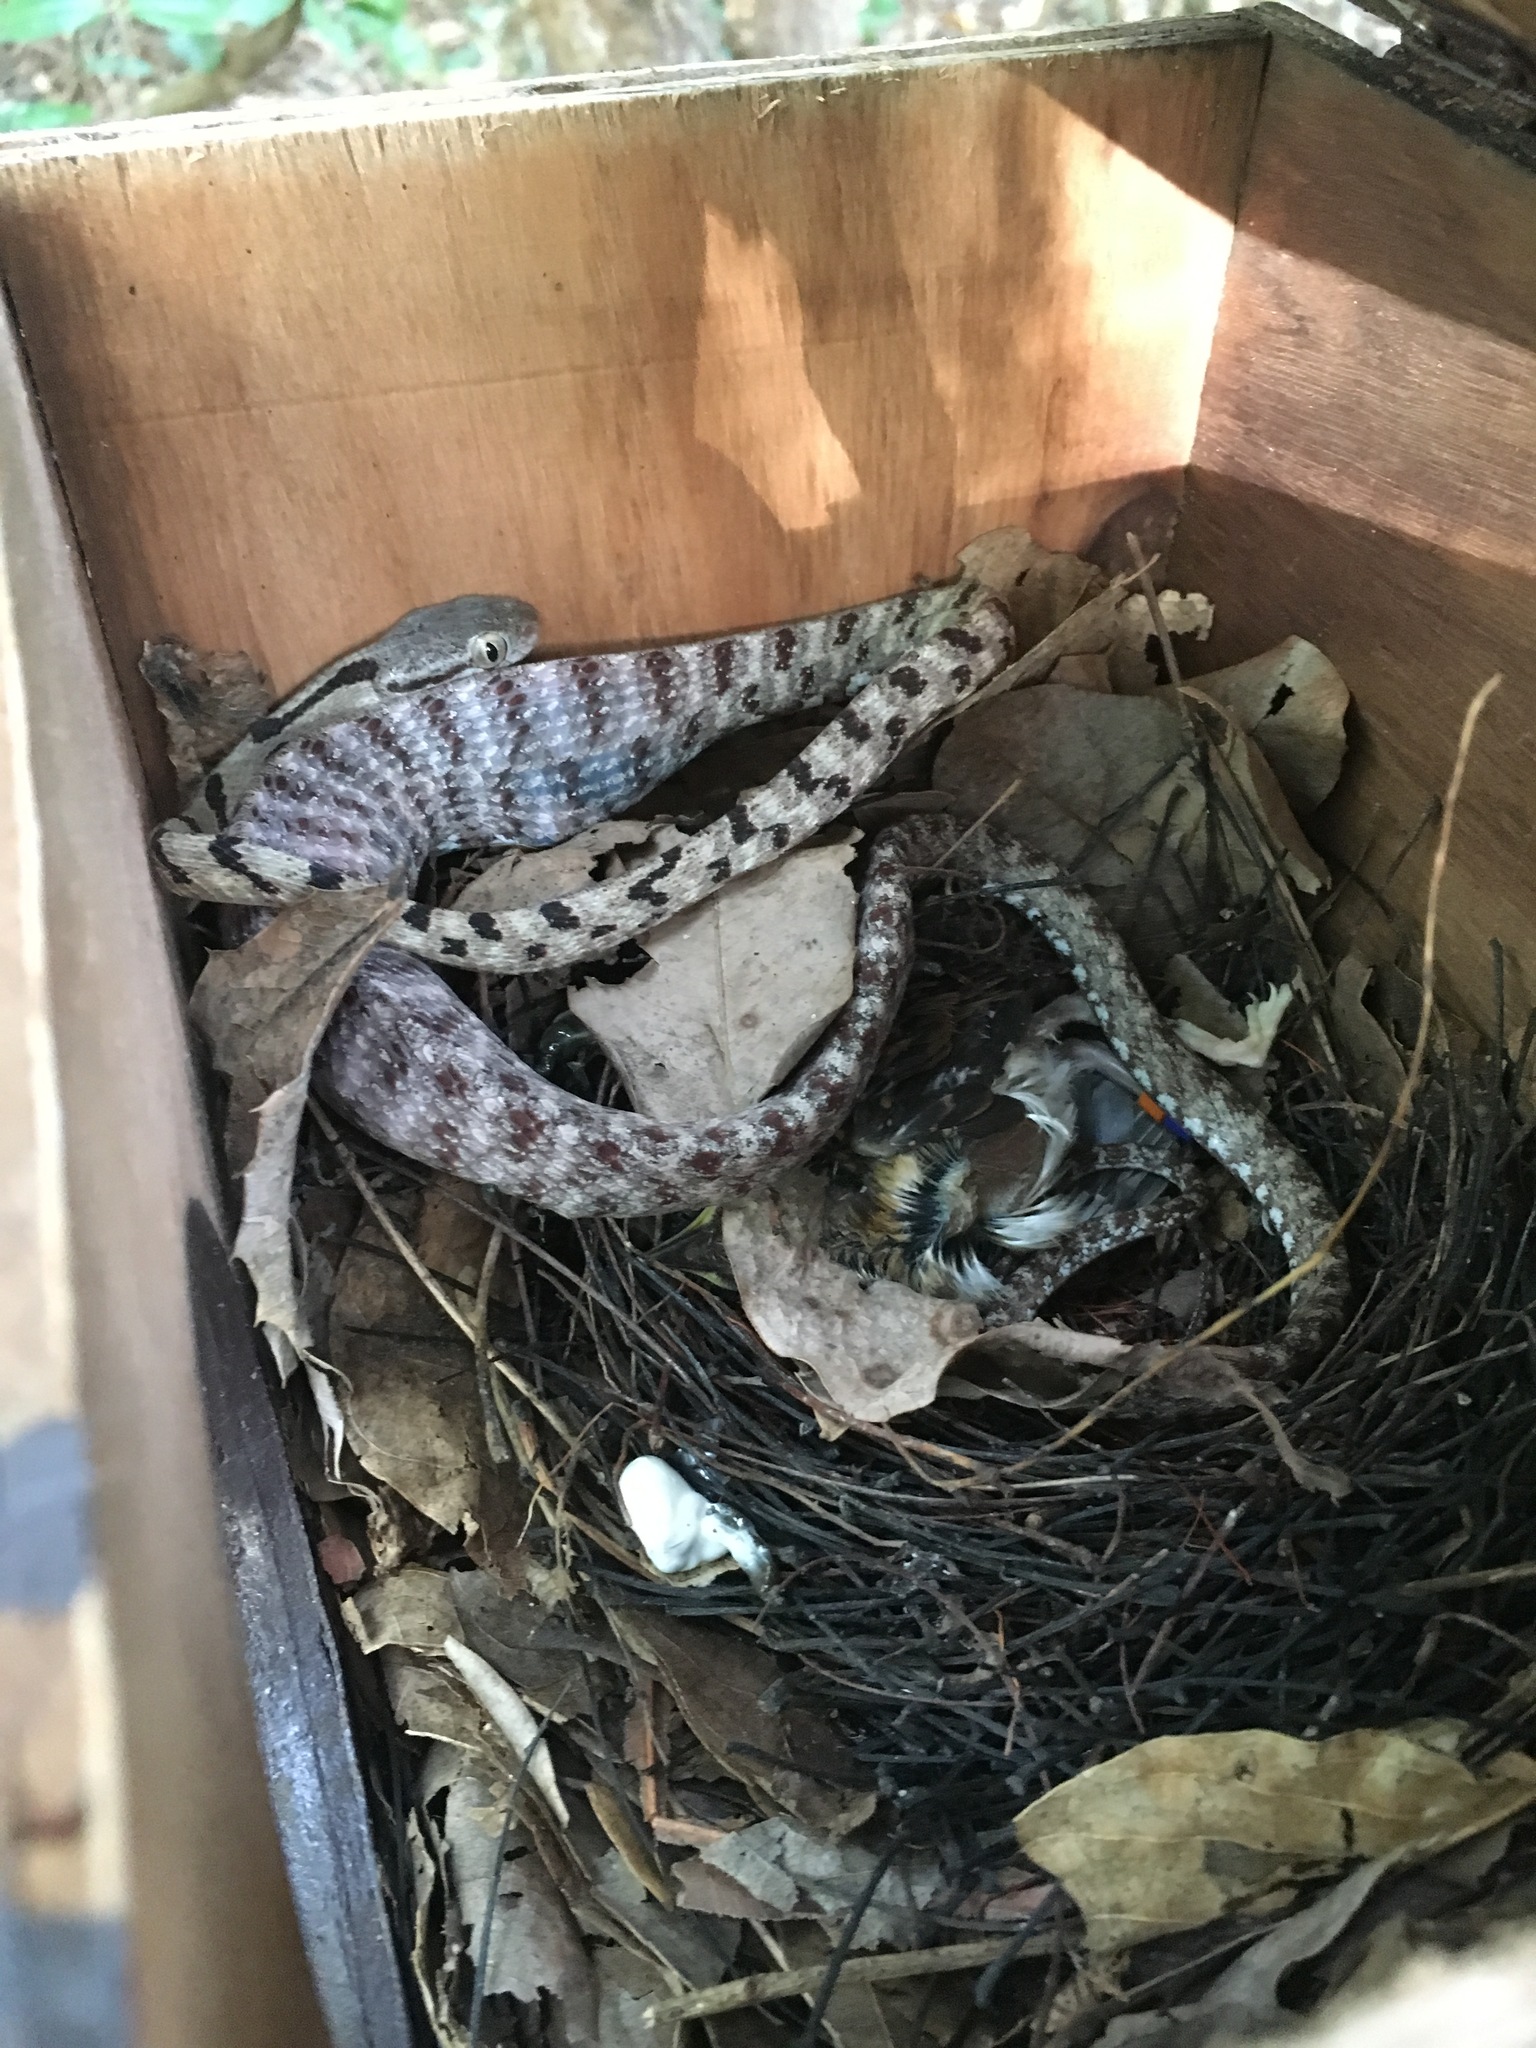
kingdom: Animalia
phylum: Chordata
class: Squamata
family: Colubridae
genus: Boiga
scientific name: Boiga siamensis
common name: Eyed cat snake
